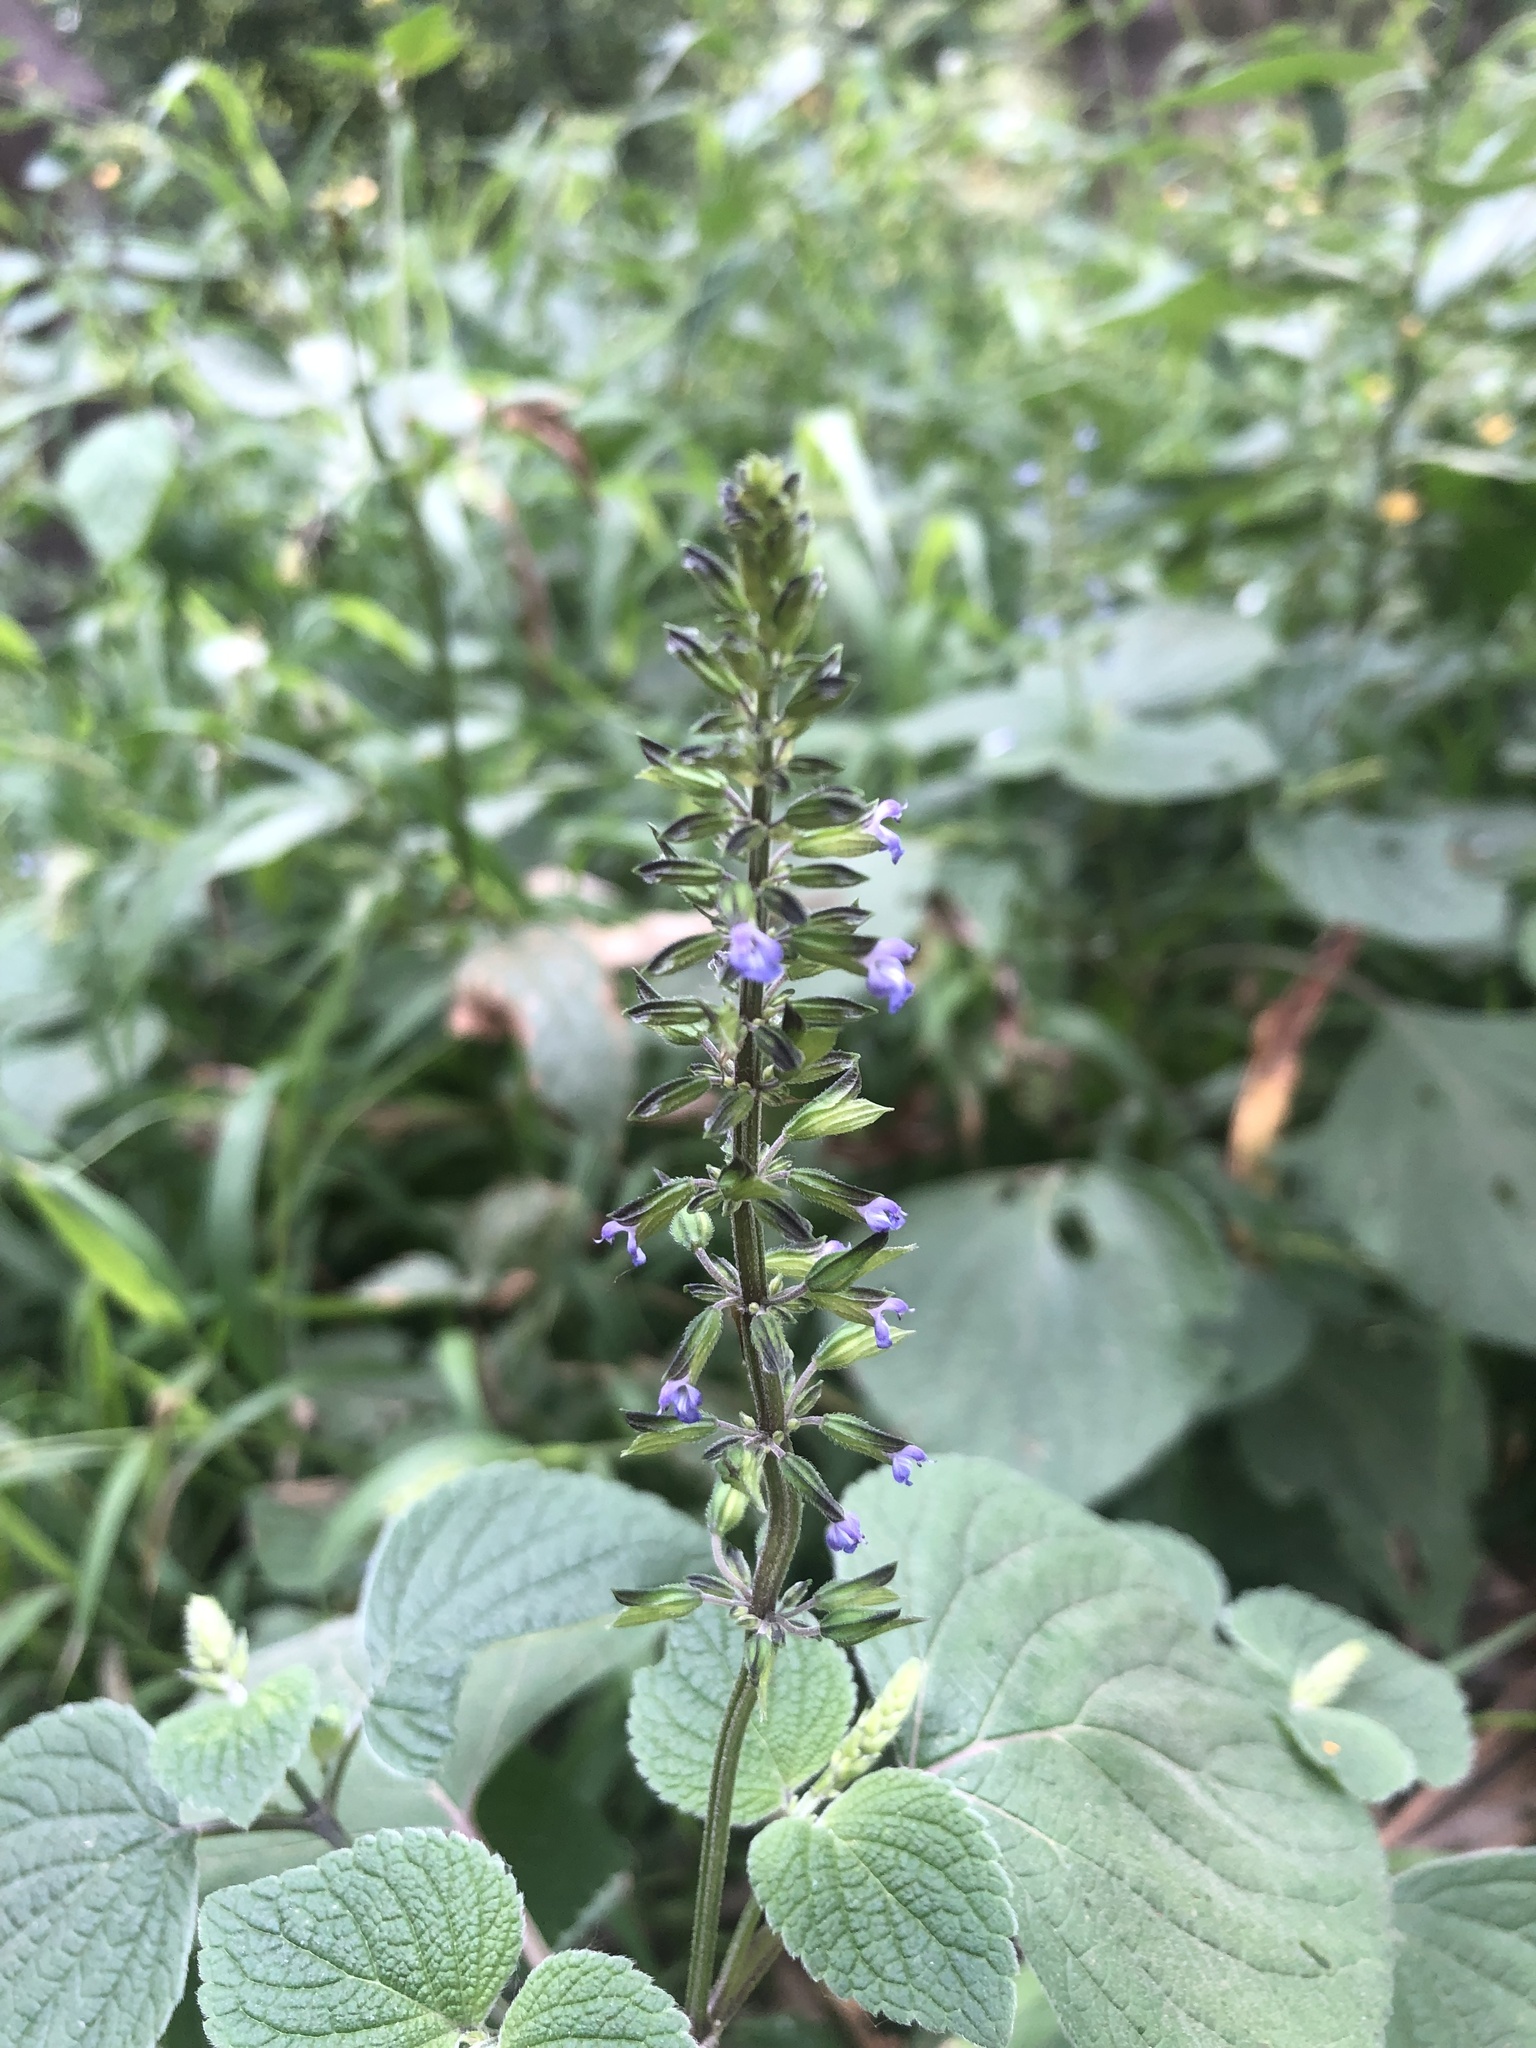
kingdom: Plantae
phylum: Tracheophyta
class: Magnoliopsida
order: Lamiales
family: Lamiaceae
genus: Salvia
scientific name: Salvia tiliifolia
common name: Lindenleaf sage
